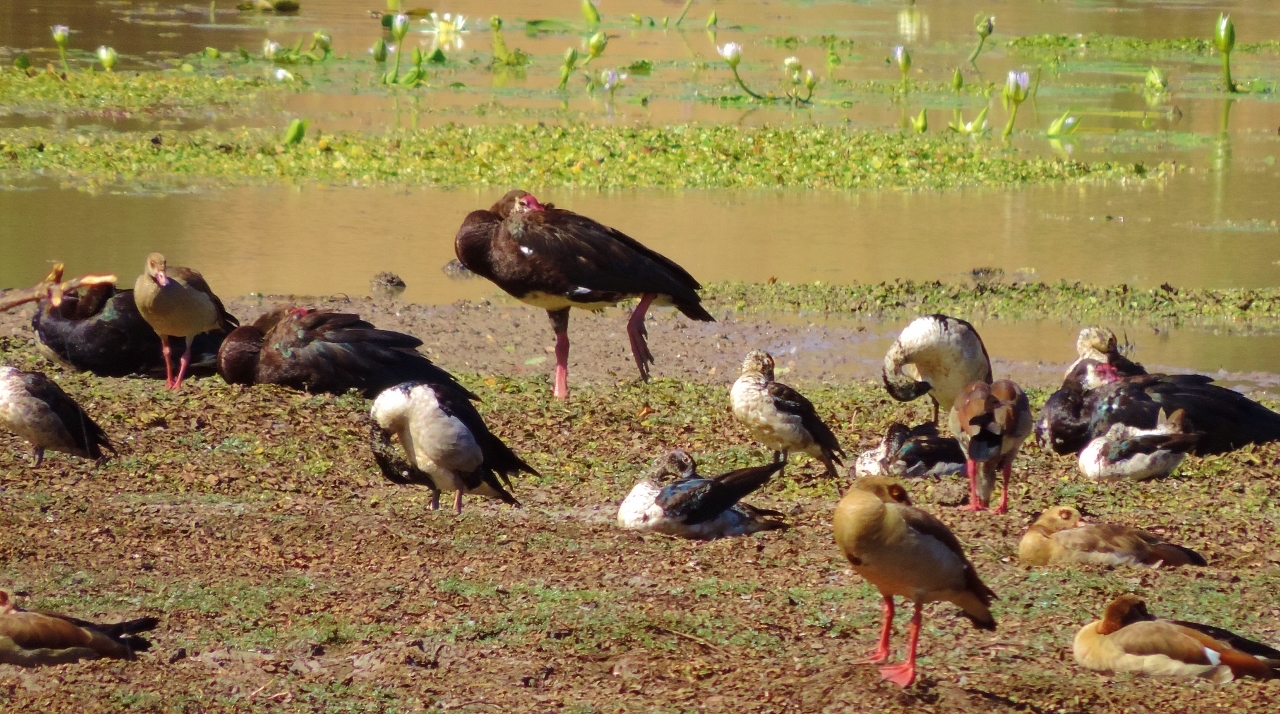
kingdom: Animalia
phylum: Chordata
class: Aves
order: Anseriformes
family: Anatidae
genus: Plectropterus
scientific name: Plectropterus gambensis
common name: Spur-winged goose
